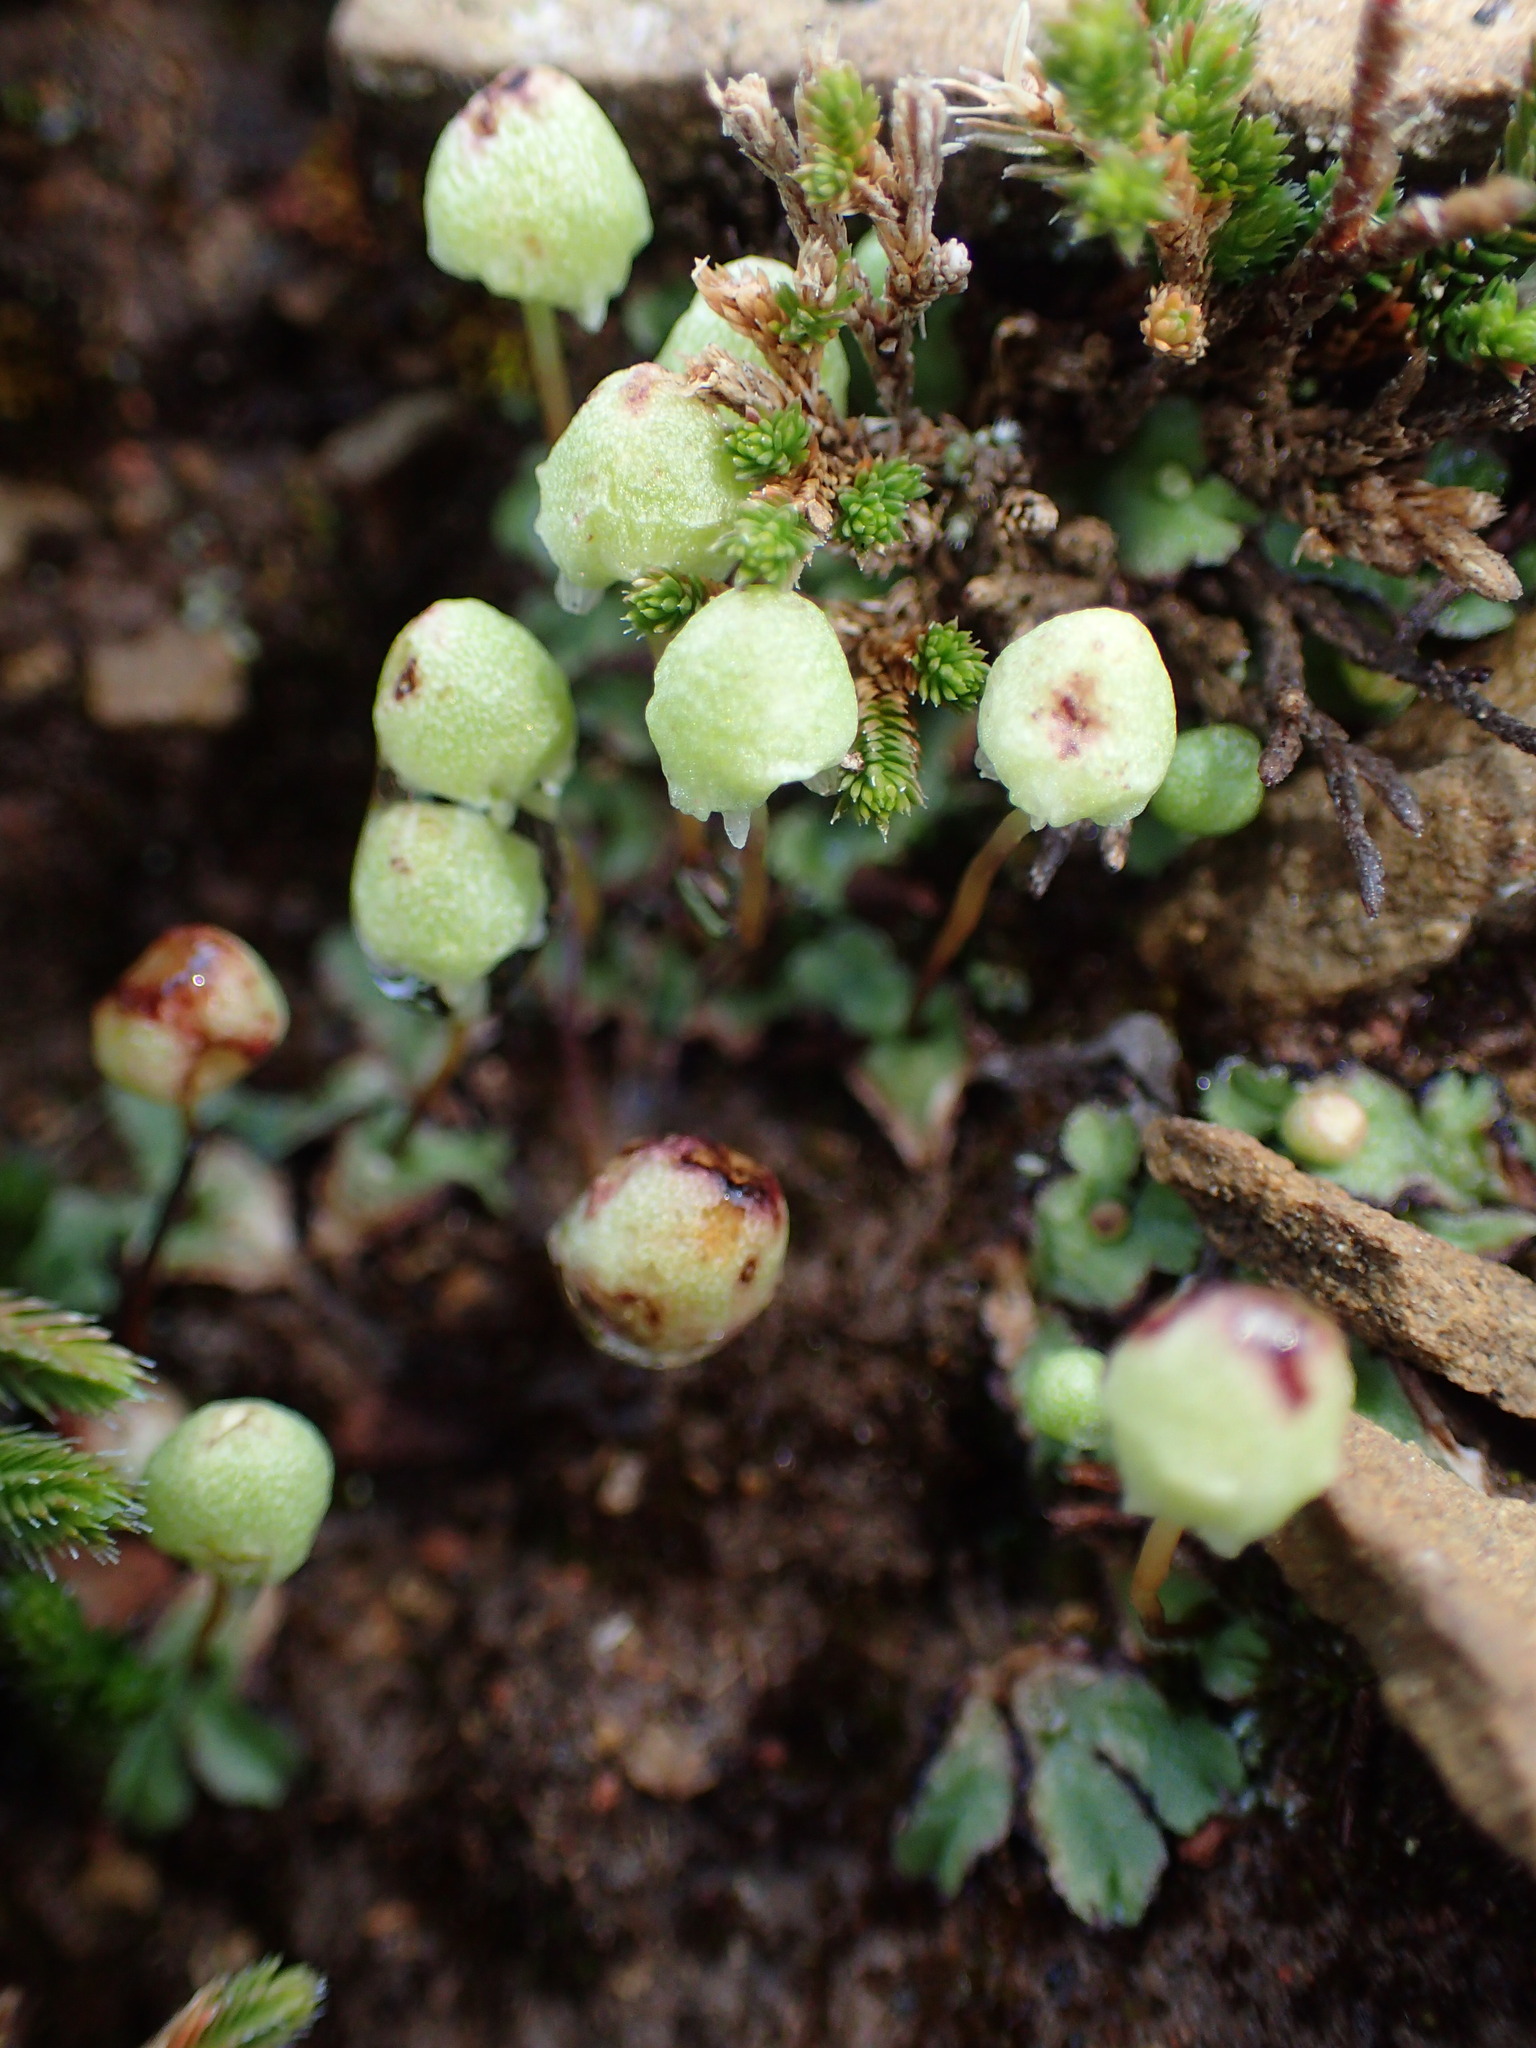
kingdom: Plantae
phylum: Marchantiophyta
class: Marchantiopsida
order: Marchantiales
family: Aytoniaceae
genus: Asterella
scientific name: Asterella palmeri
